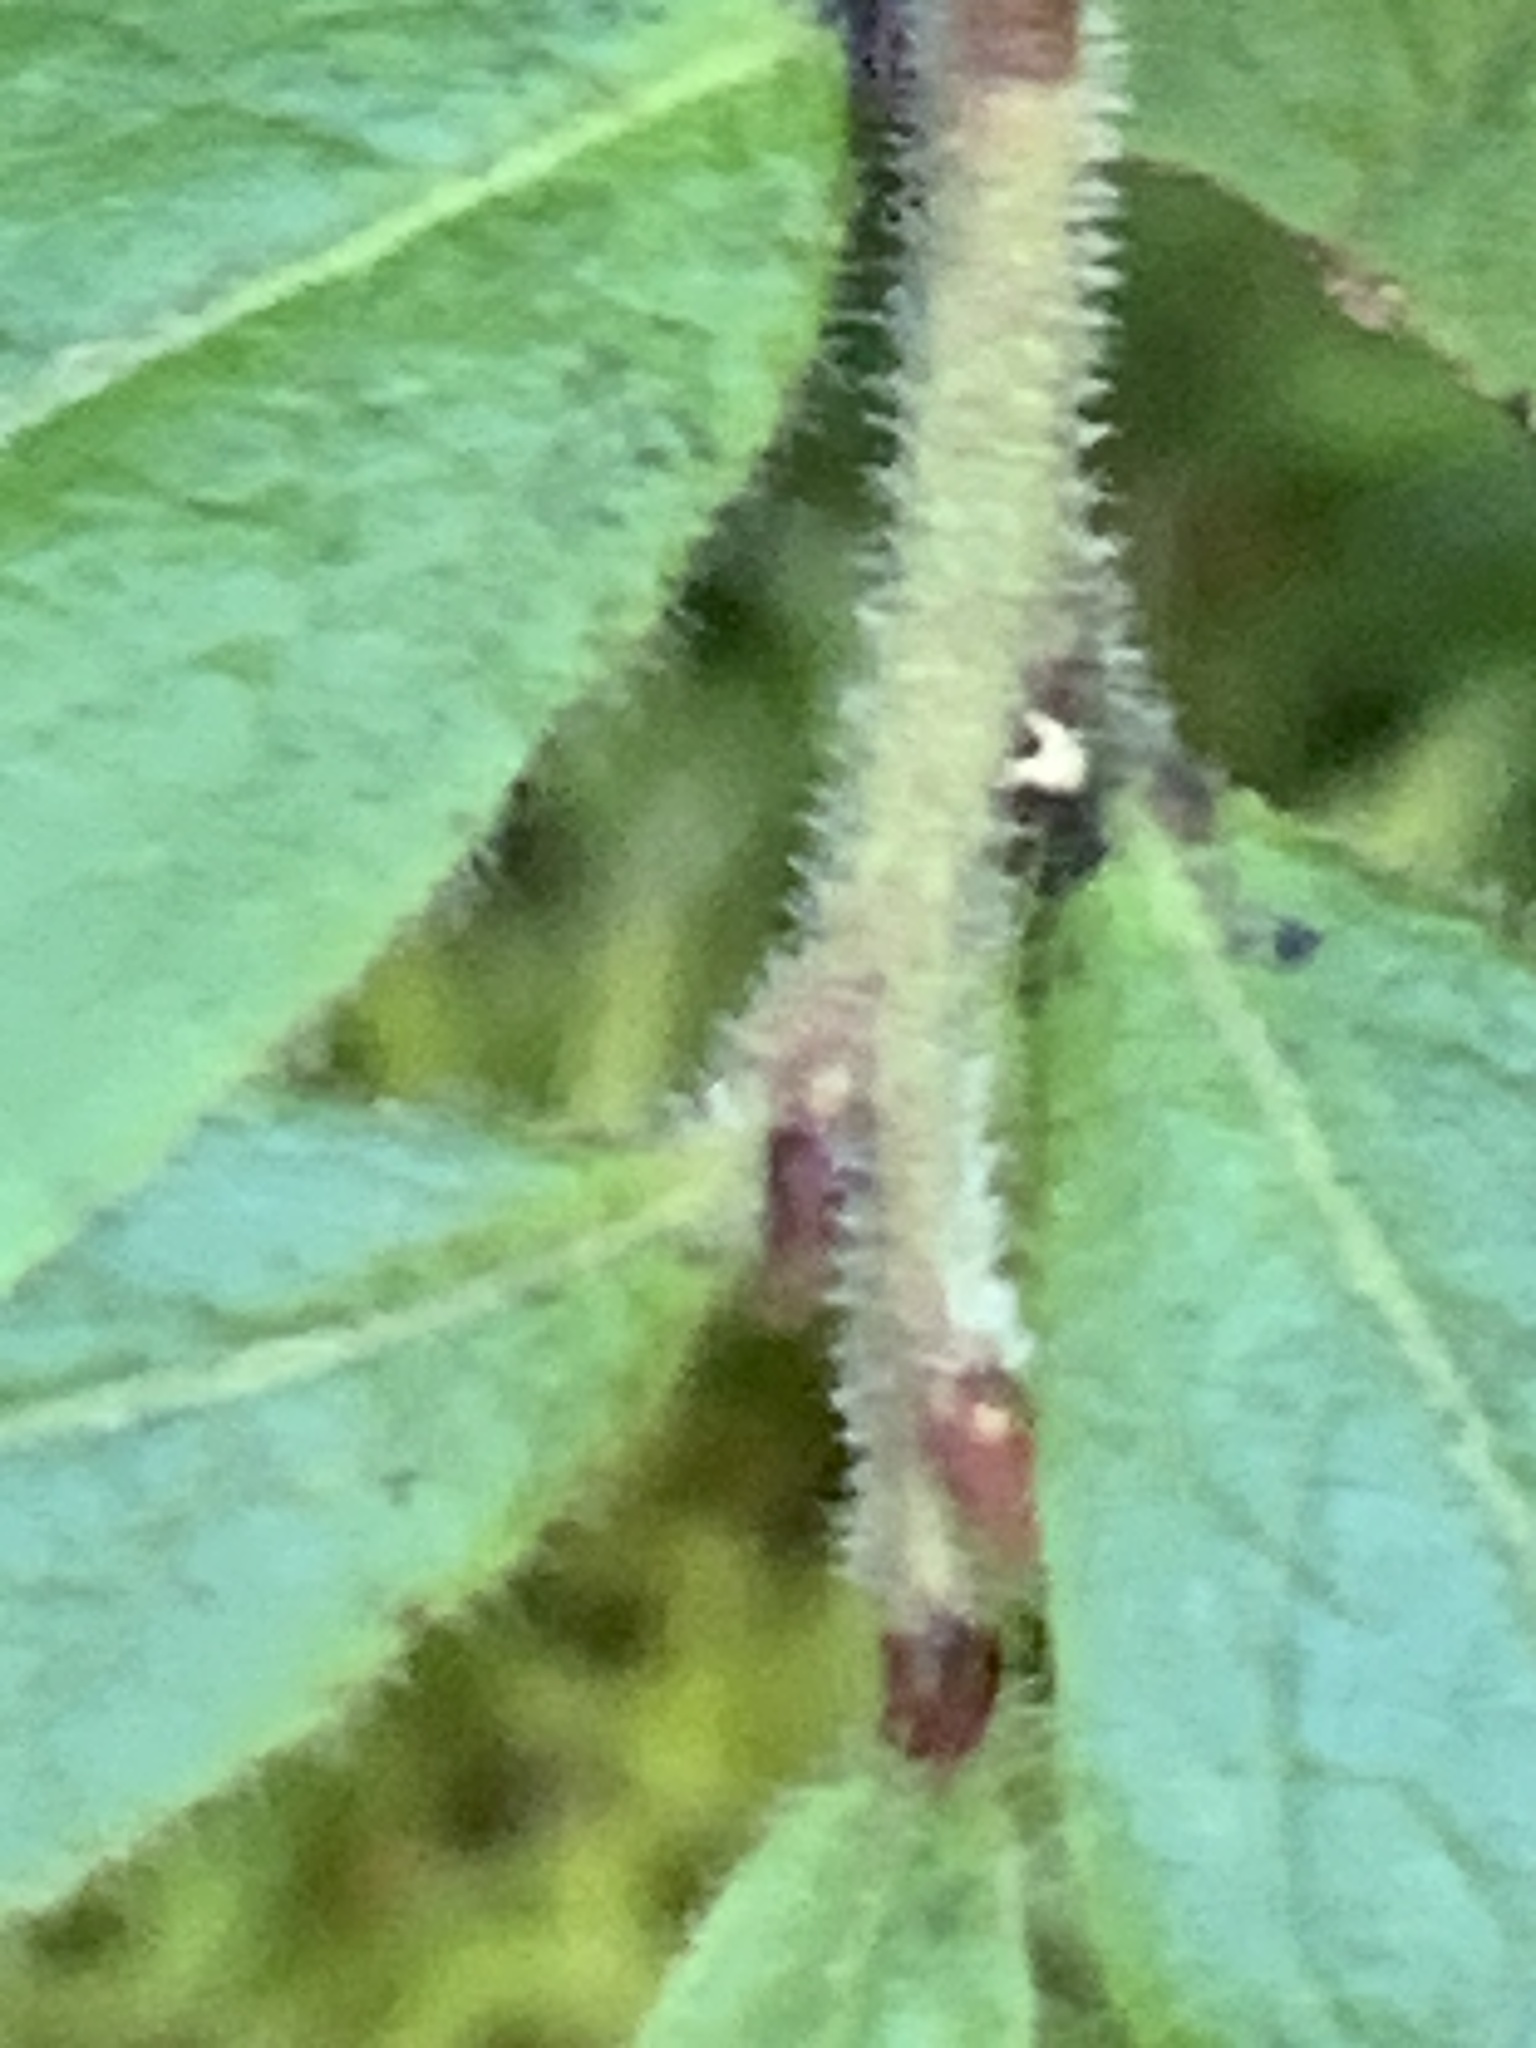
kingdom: Plantae
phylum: Tracheophyta
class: Magnoliopsida
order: Ericales
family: Ericaceae
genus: Vaccinium
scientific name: Vaccinium myrtilloides
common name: Canada blueberry
